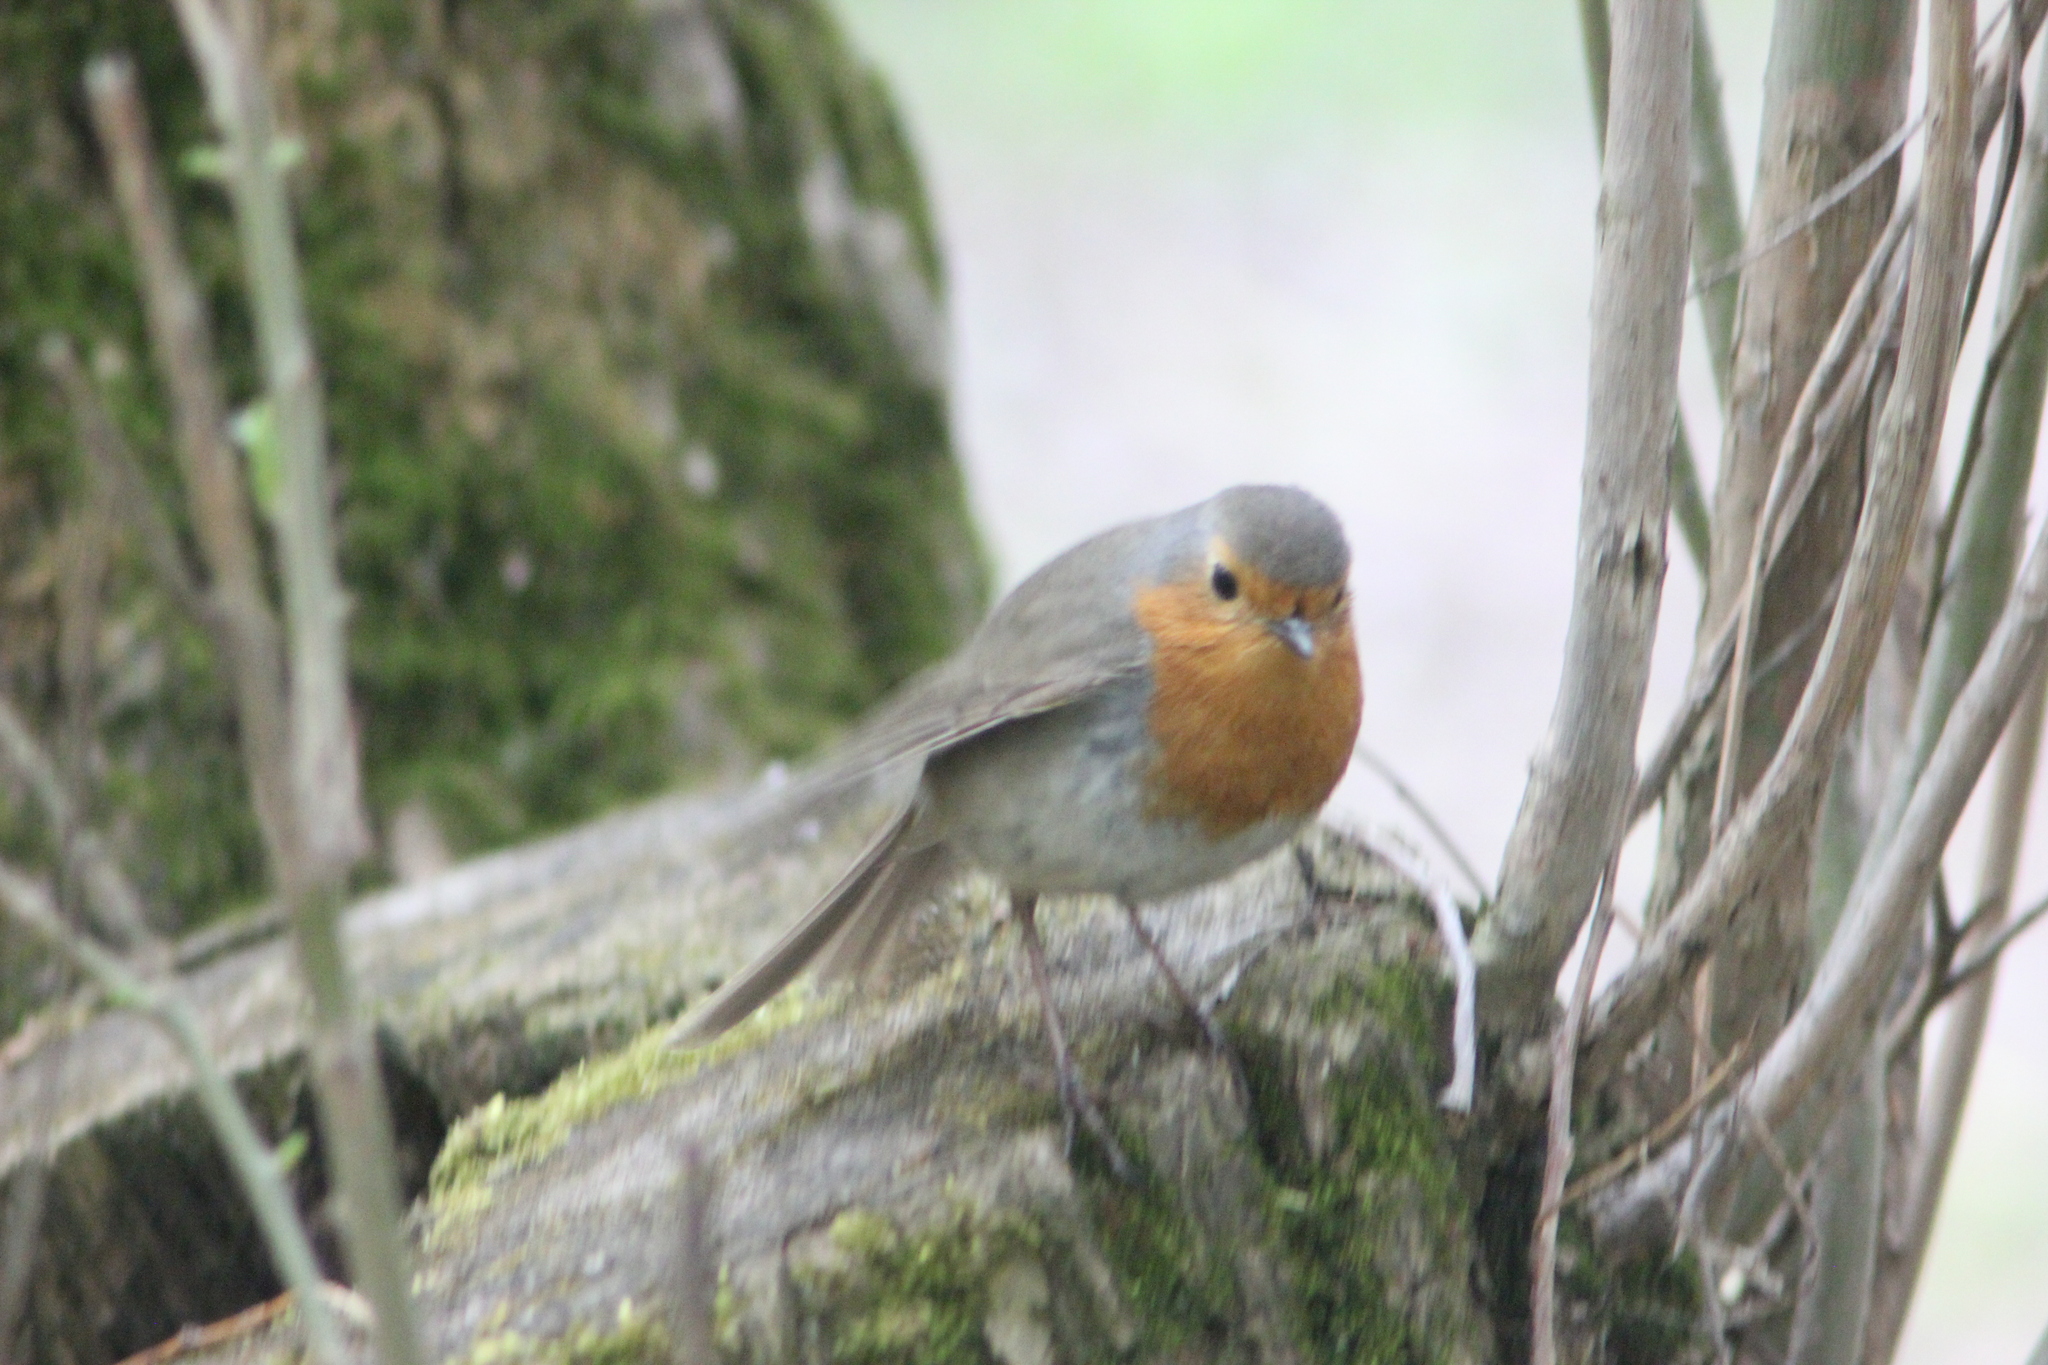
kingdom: Animalia
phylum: Chordata
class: Aves
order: Passeriformes
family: Muscicapidae
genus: Erithacus
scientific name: Erithacus rubecula
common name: European robin
